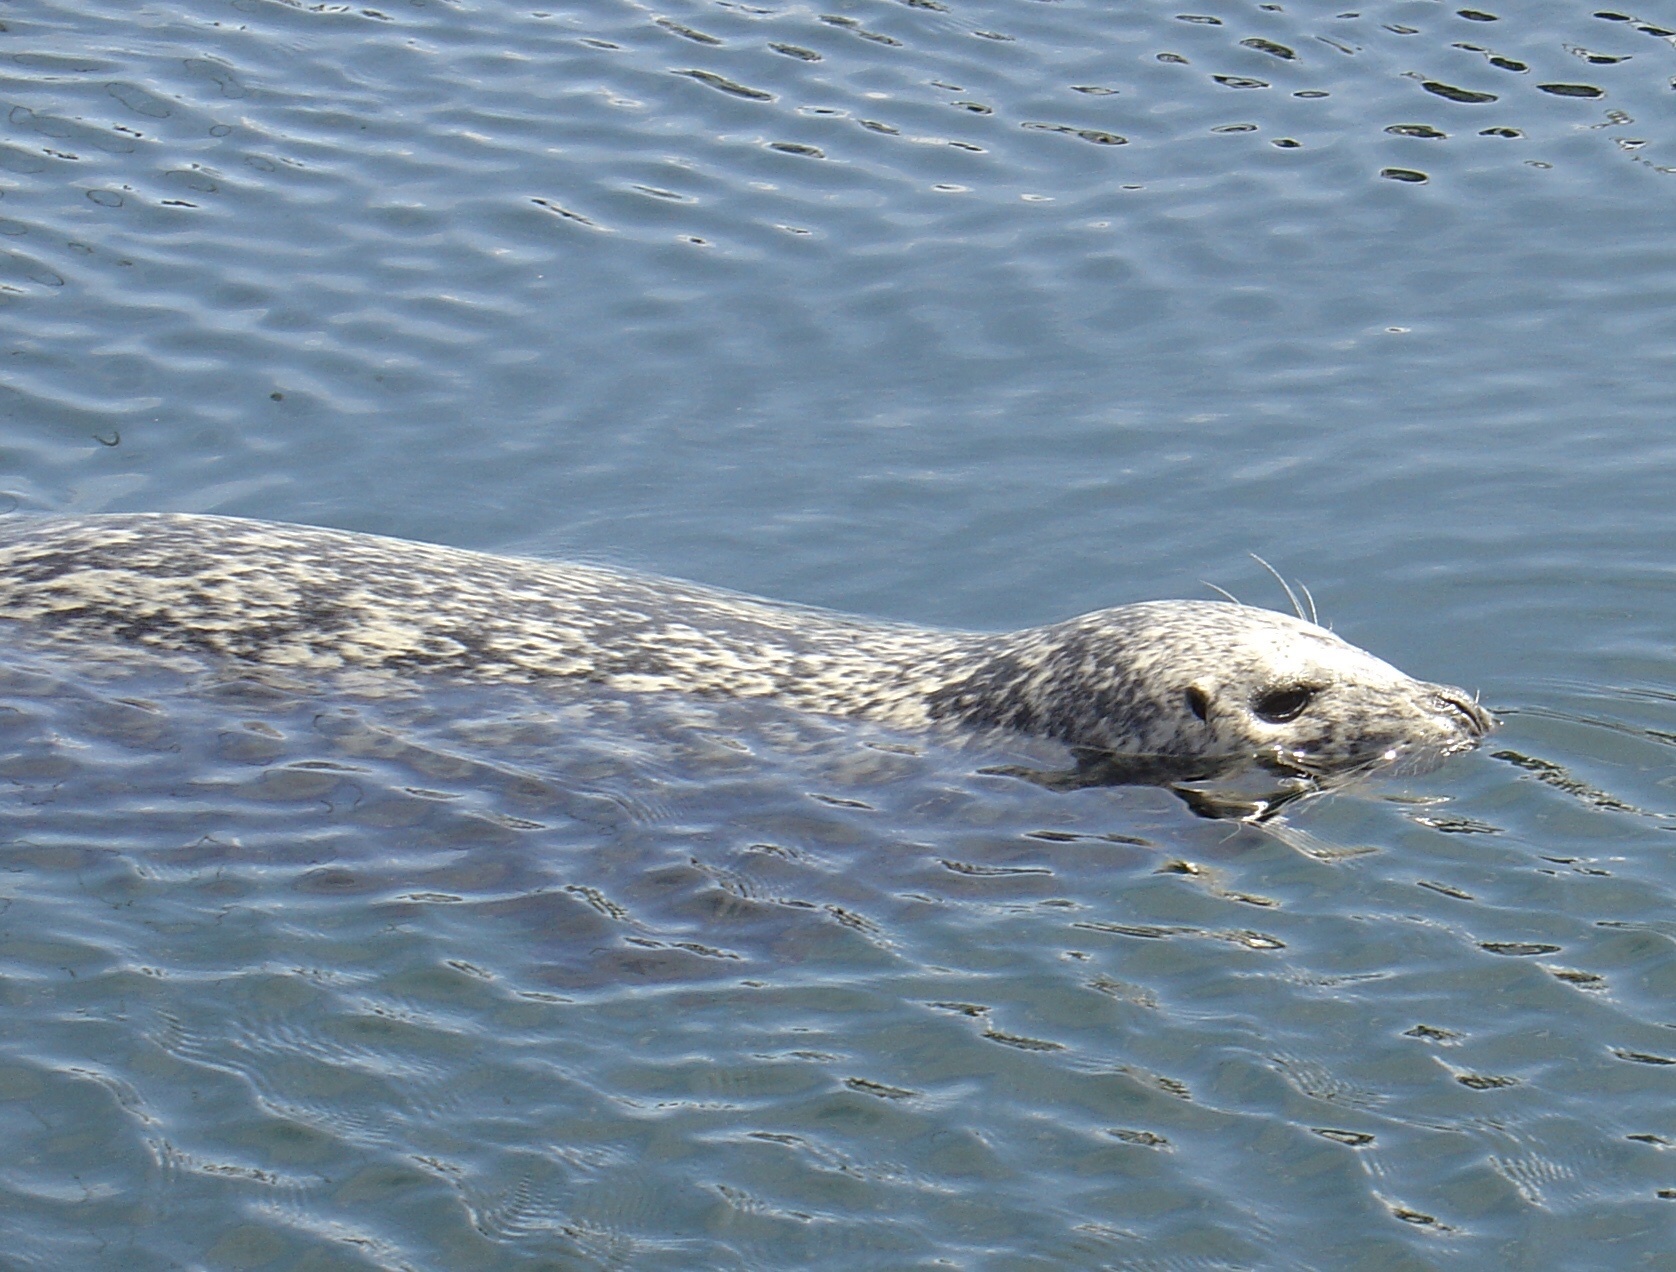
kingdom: Animalia
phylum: Chordata
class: Mammalia
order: Carnivora
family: Phocidae
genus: Phoca
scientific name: Phoca vitulina
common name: Harbor seal
